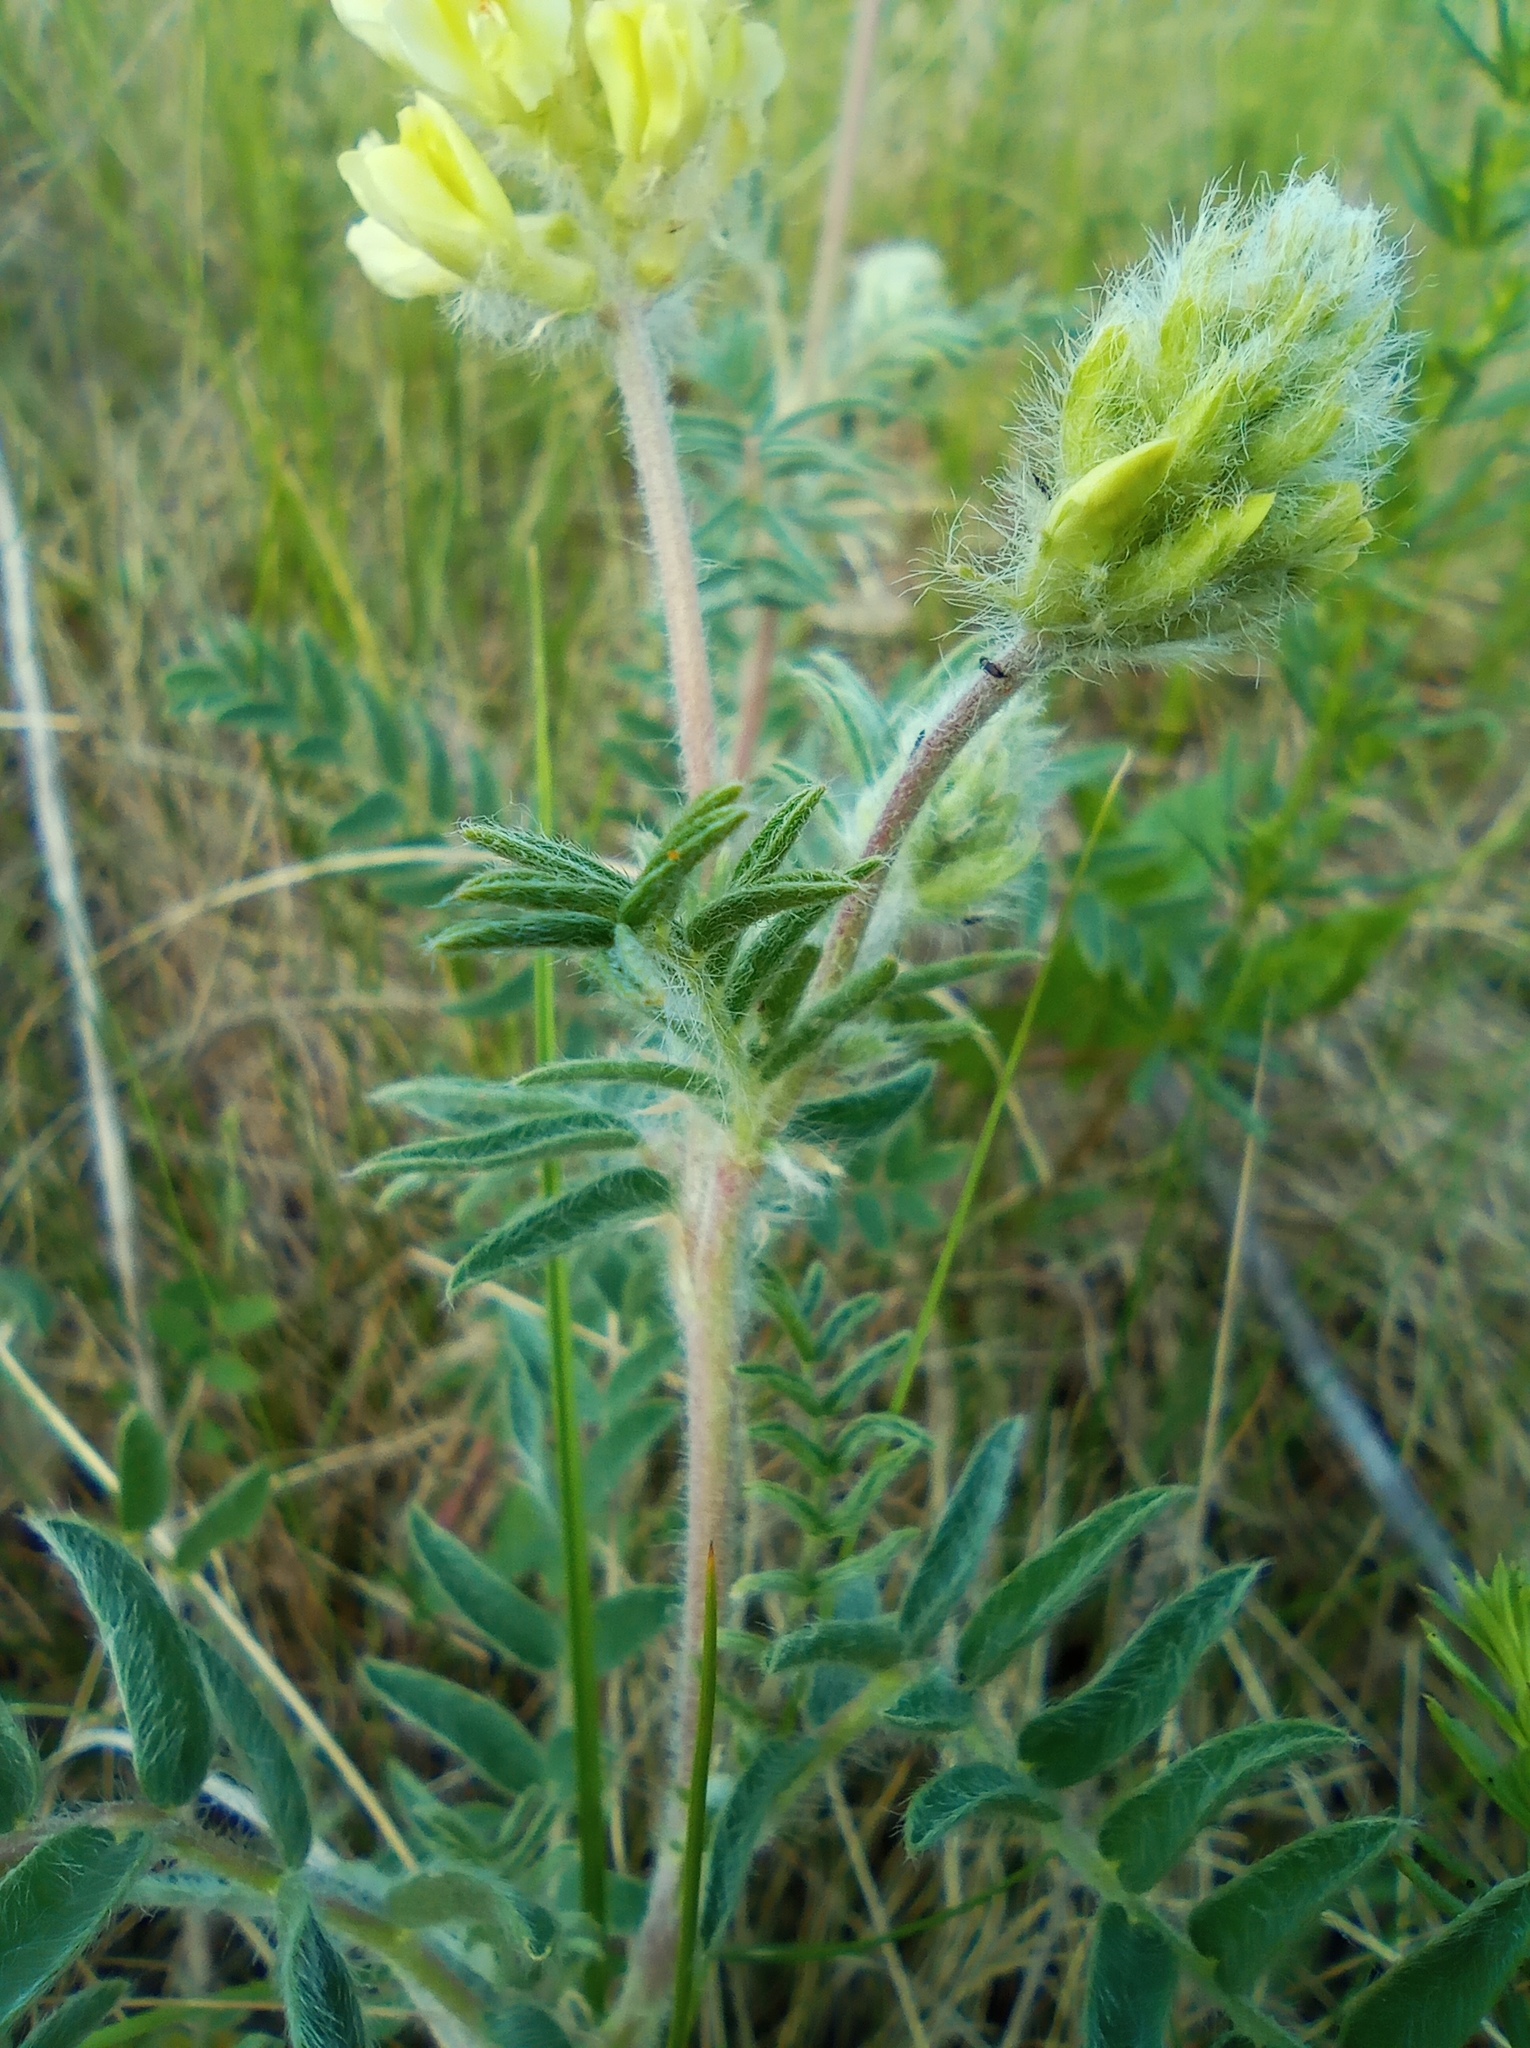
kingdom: Plantae
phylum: Tracheophyta
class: Magnoliopsida
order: Fabales
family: Fabaceae
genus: Oxytropis
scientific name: Oxytropis pilosa
